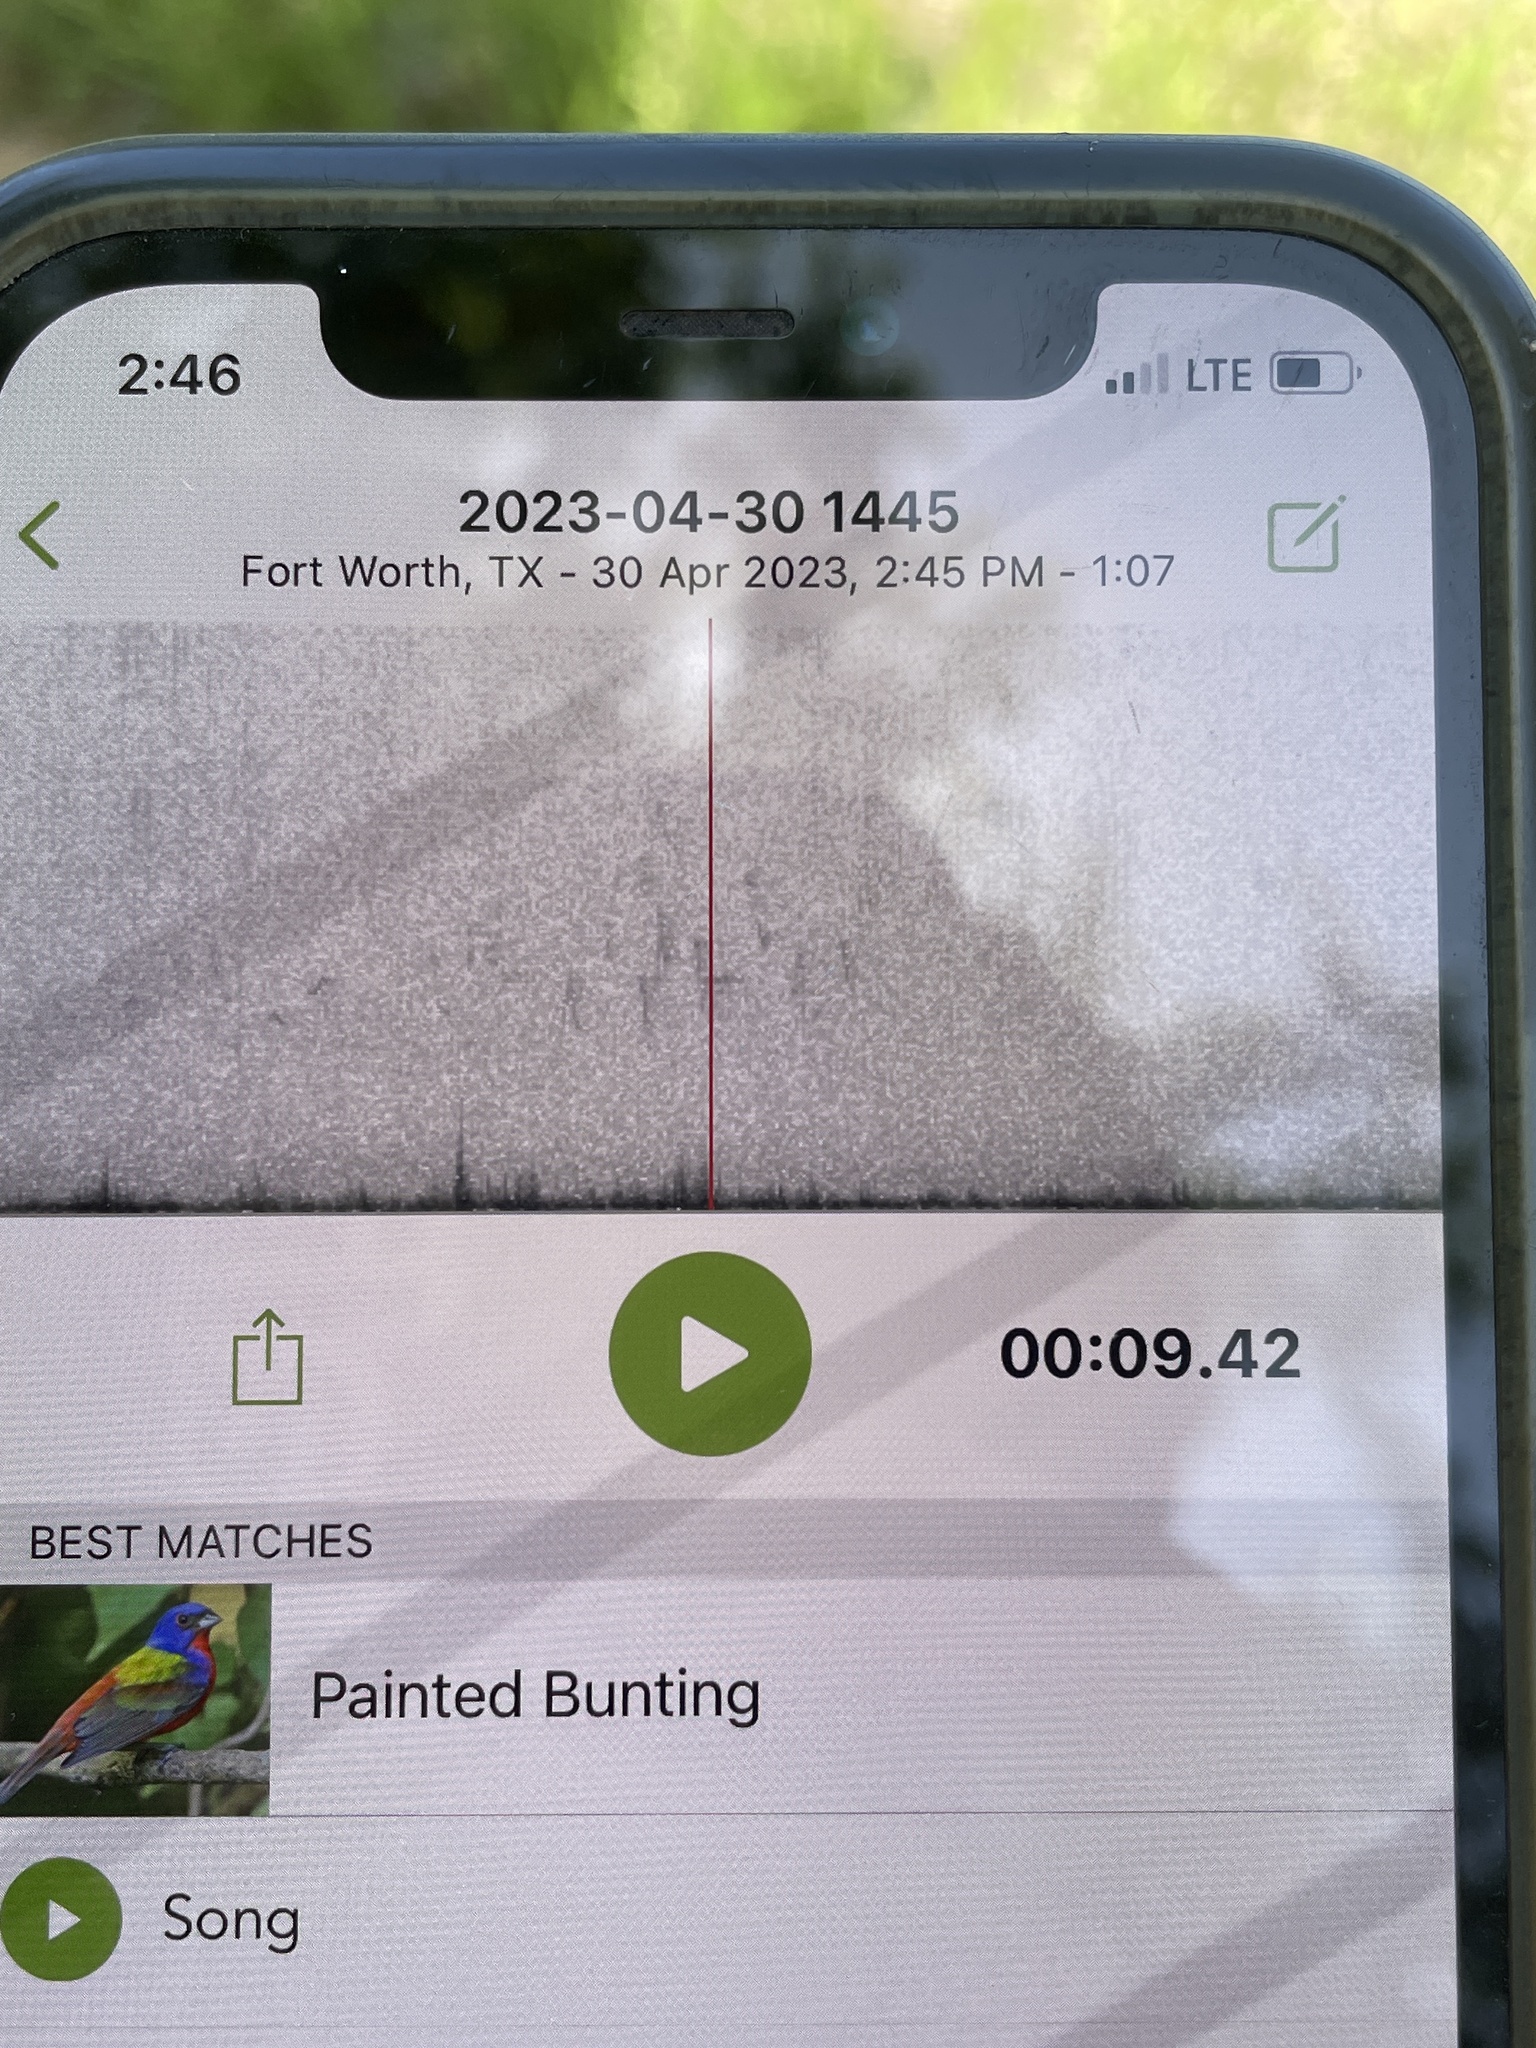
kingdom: Animalia
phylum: Chordata
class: Aves
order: Passeriformes
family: Cardinalidae
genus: Passerina
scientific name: Passerina ciris
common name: Painted bunting
